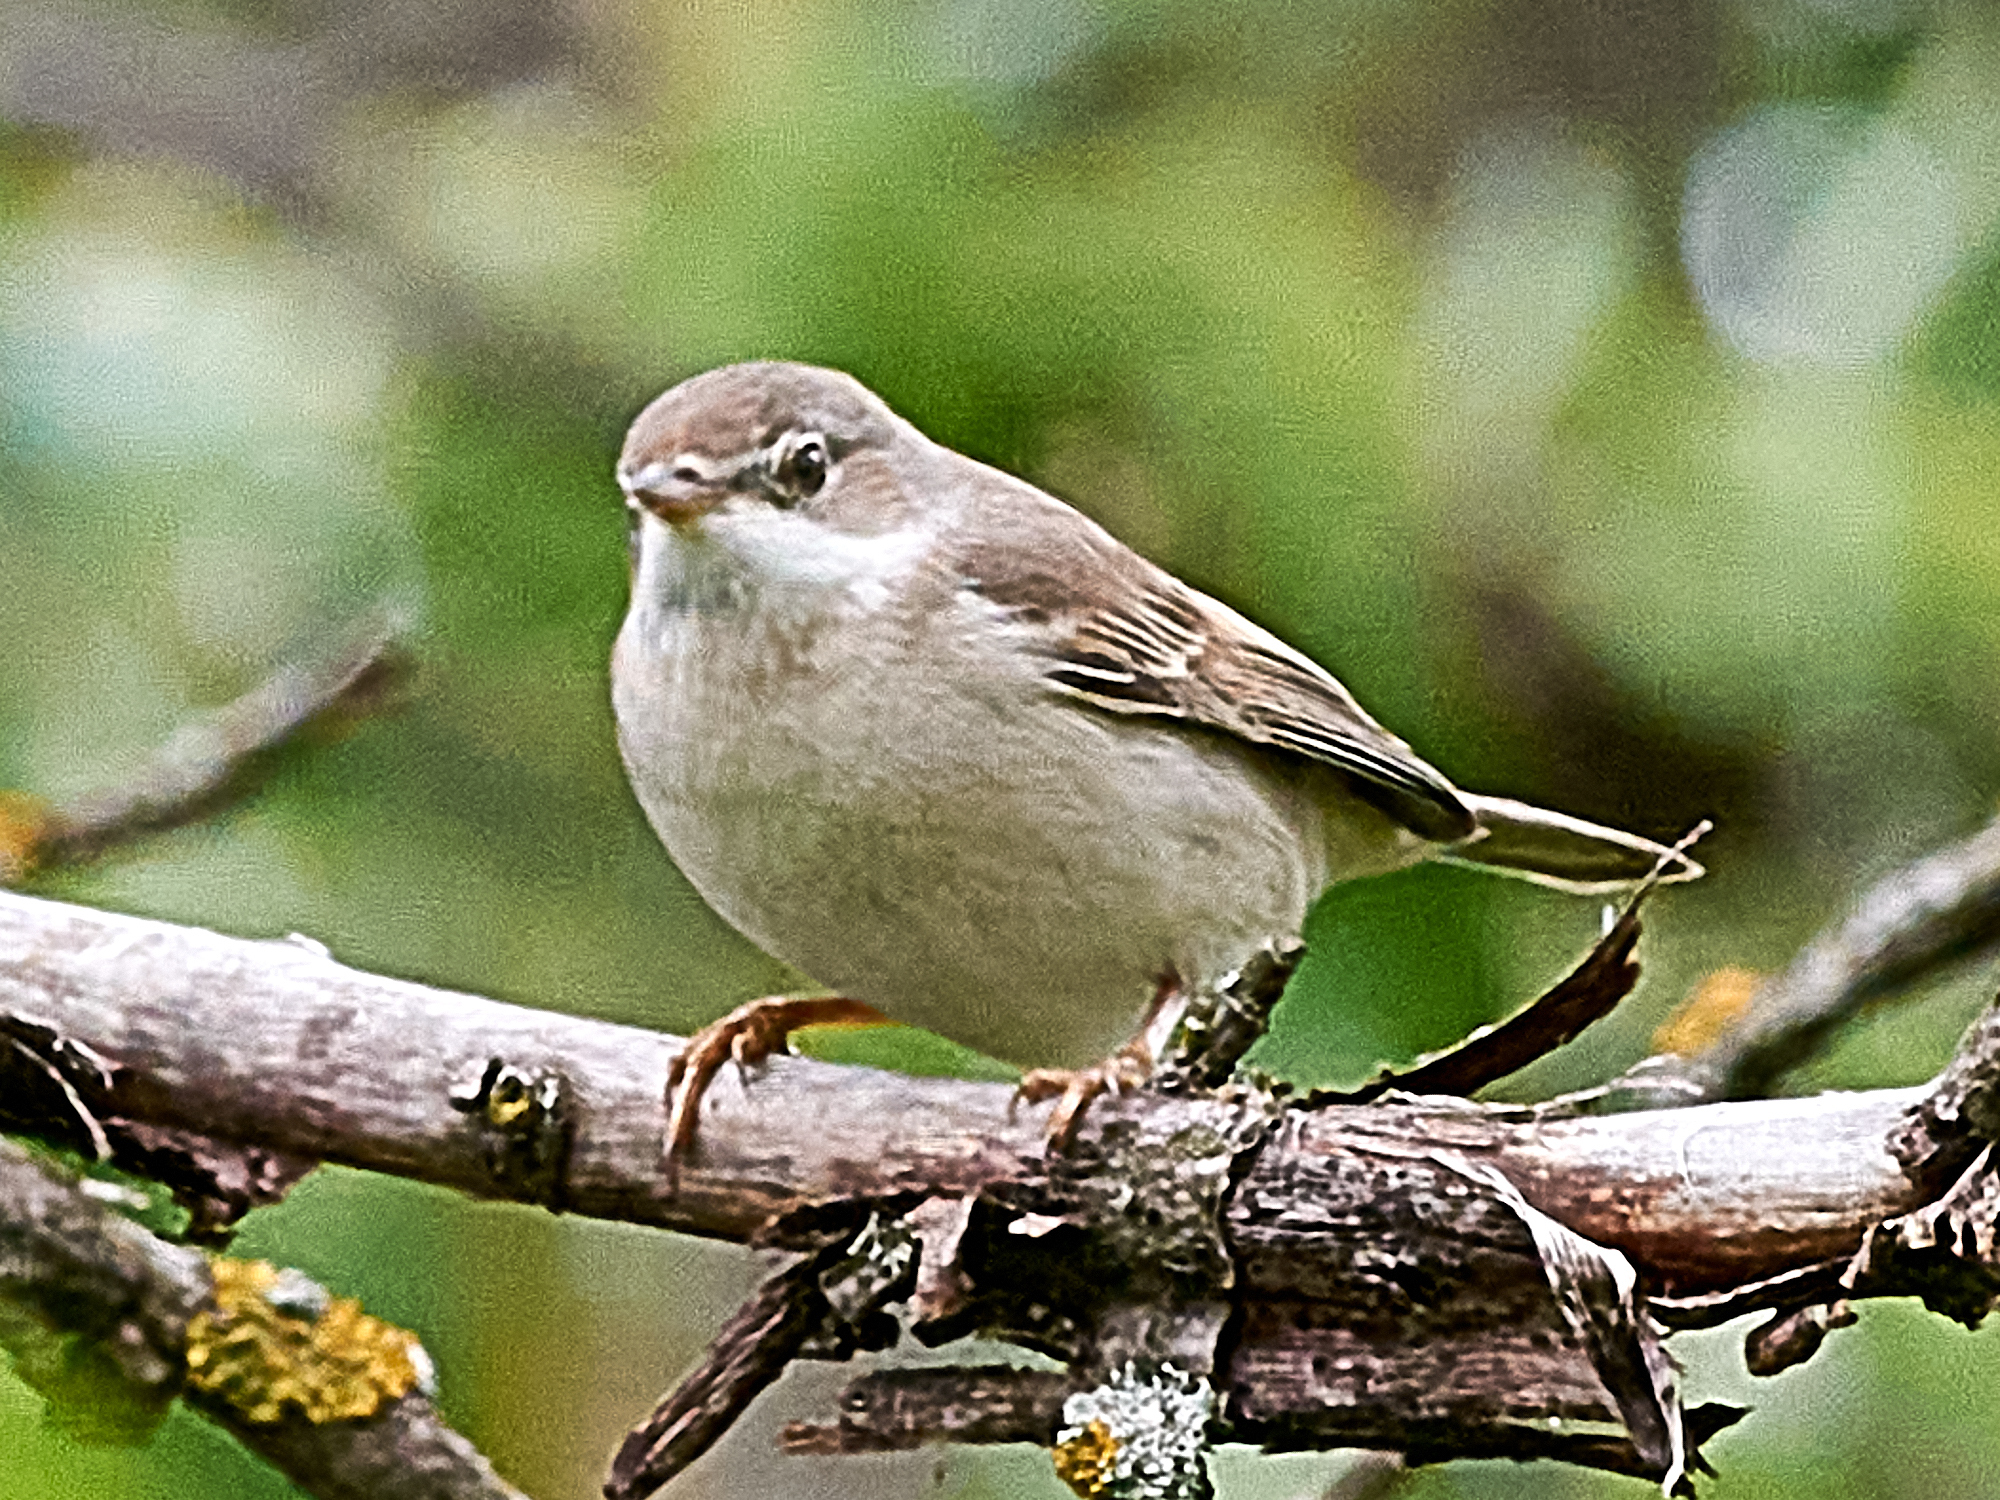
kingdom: Animalia
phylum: Chordata
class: Aves
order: Passeriformes
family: Sylviidae
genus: Sylvia
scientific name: Sylvia communis
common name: Common whitethroat
